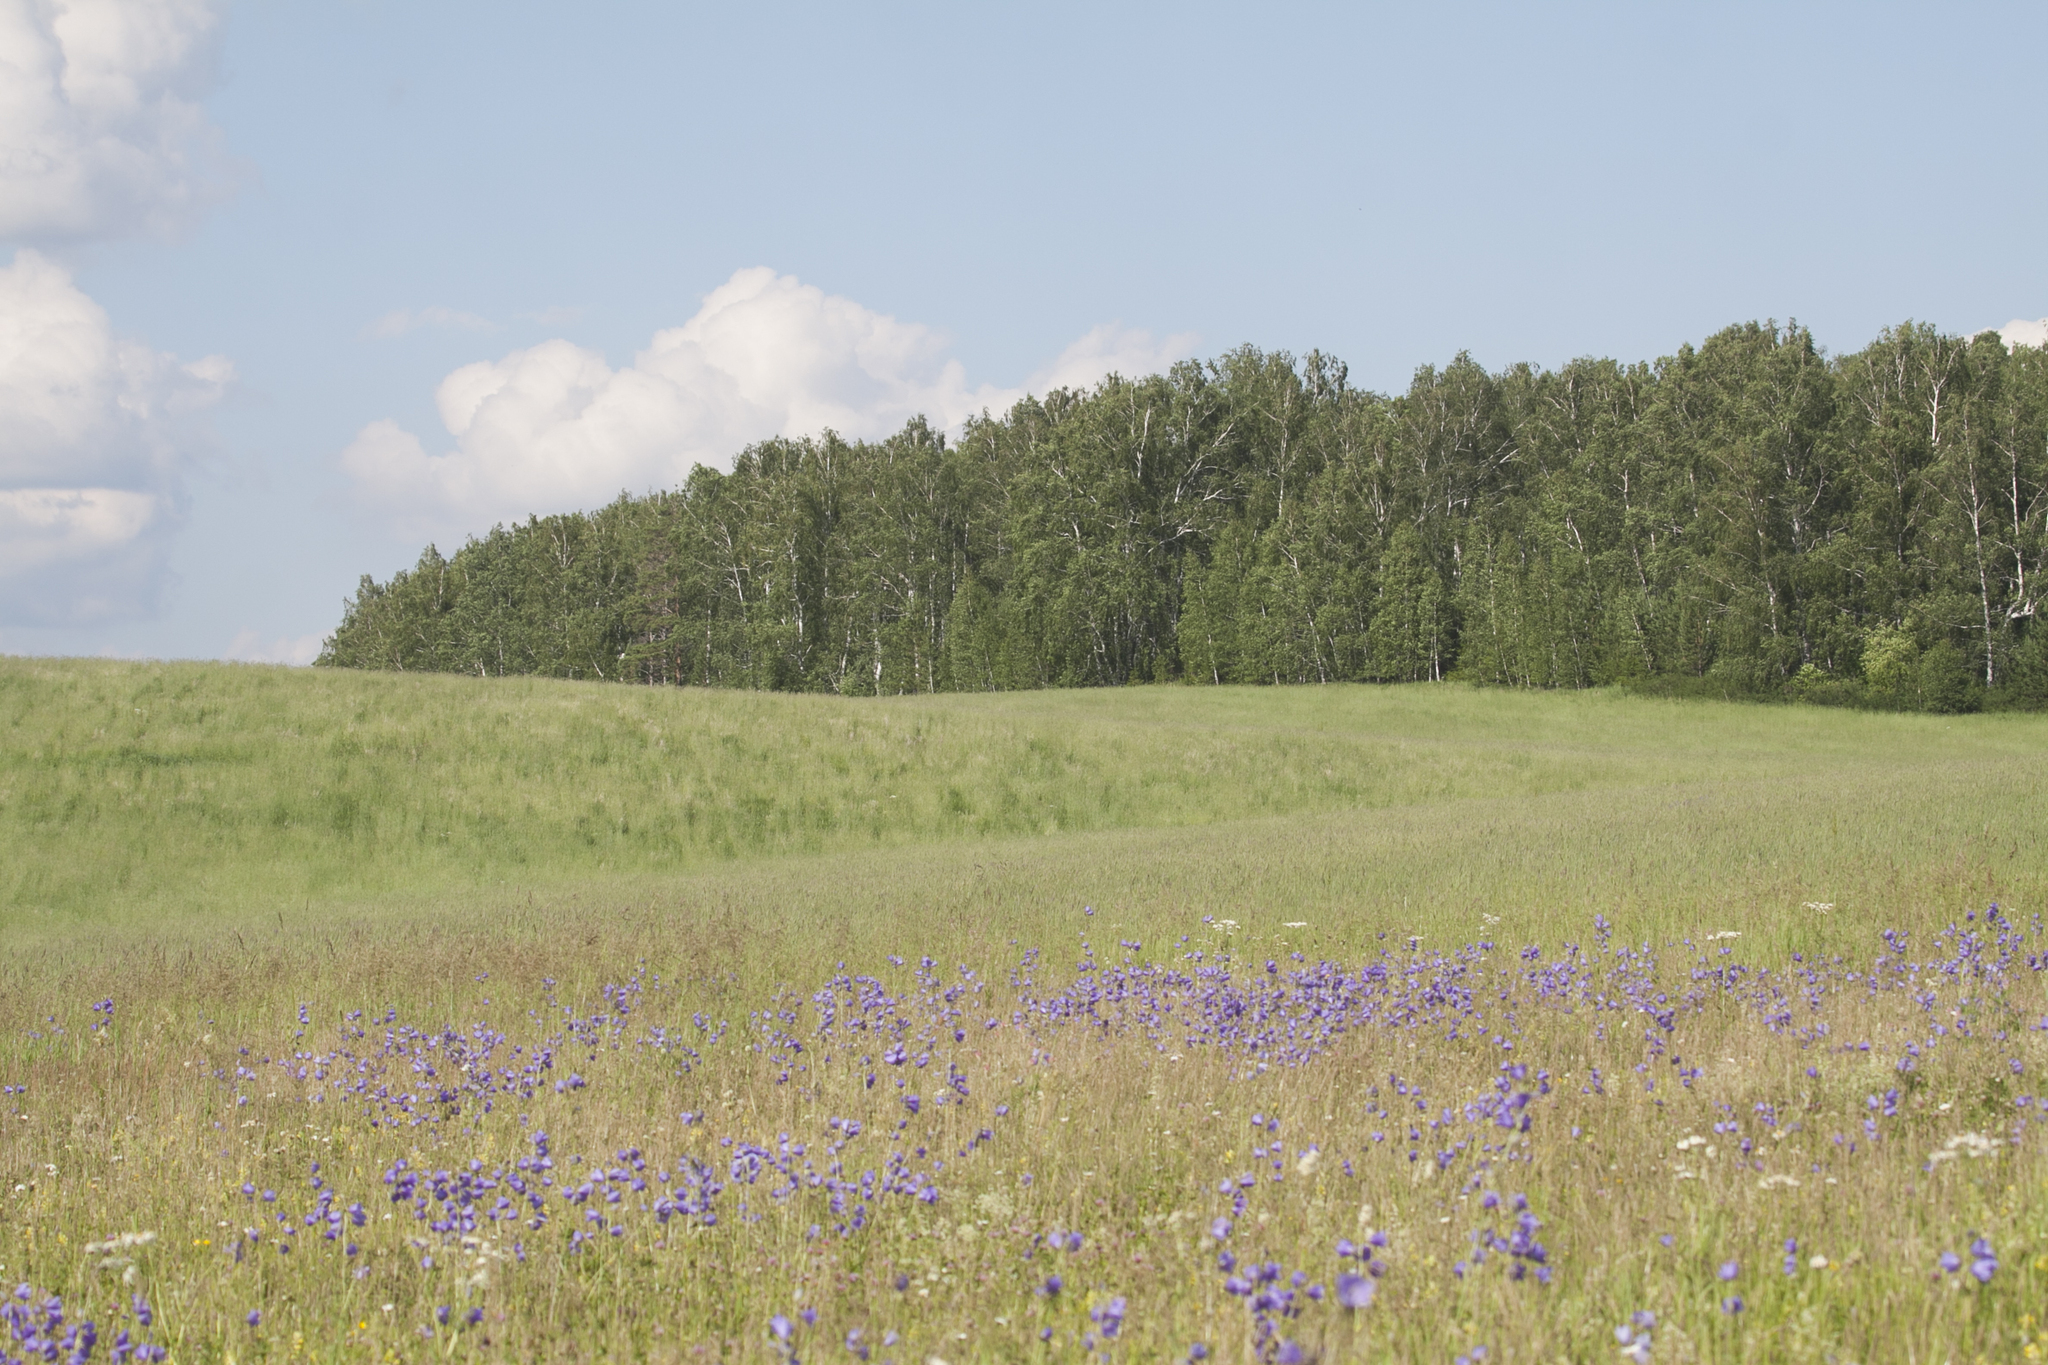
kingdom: Plantae
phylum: Tracheophyta
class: Magnoliopsida
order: Asterales
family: Campanulaceae
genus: Campanula
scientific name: Campanula persicifolia
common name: Peach-leaved bellflower
